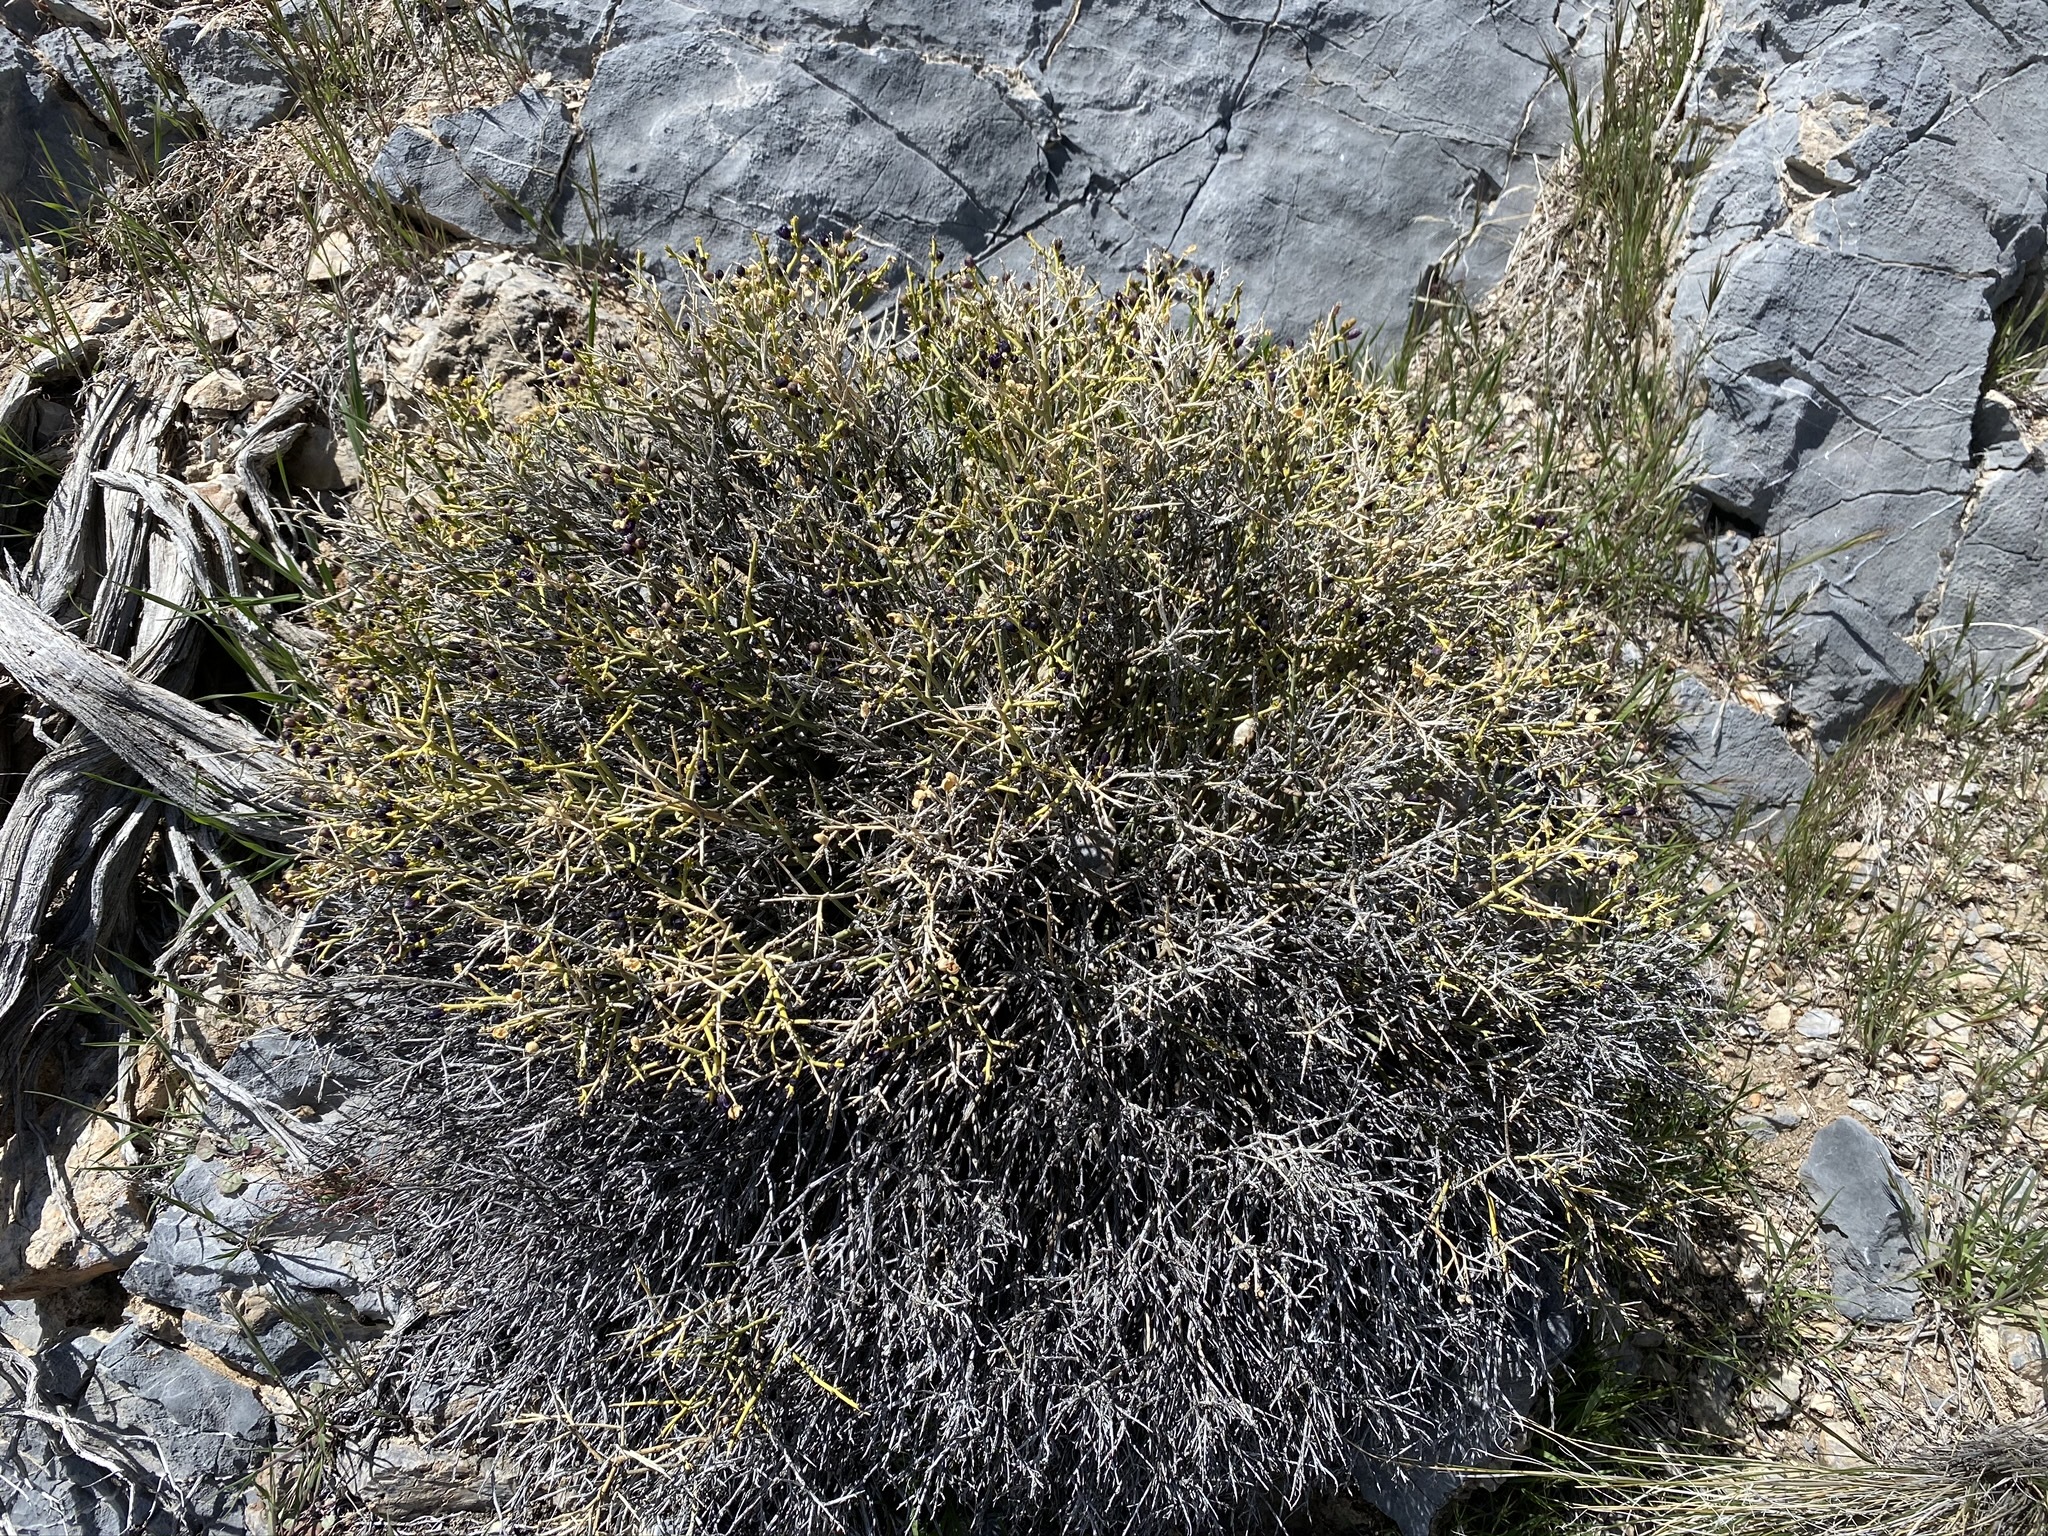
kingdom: Plantae
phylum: Tracheophyta
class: Magnoliopsida
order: Sapindales
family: Rutaceae
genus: Thamnosma
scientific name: Thamnosma montana
